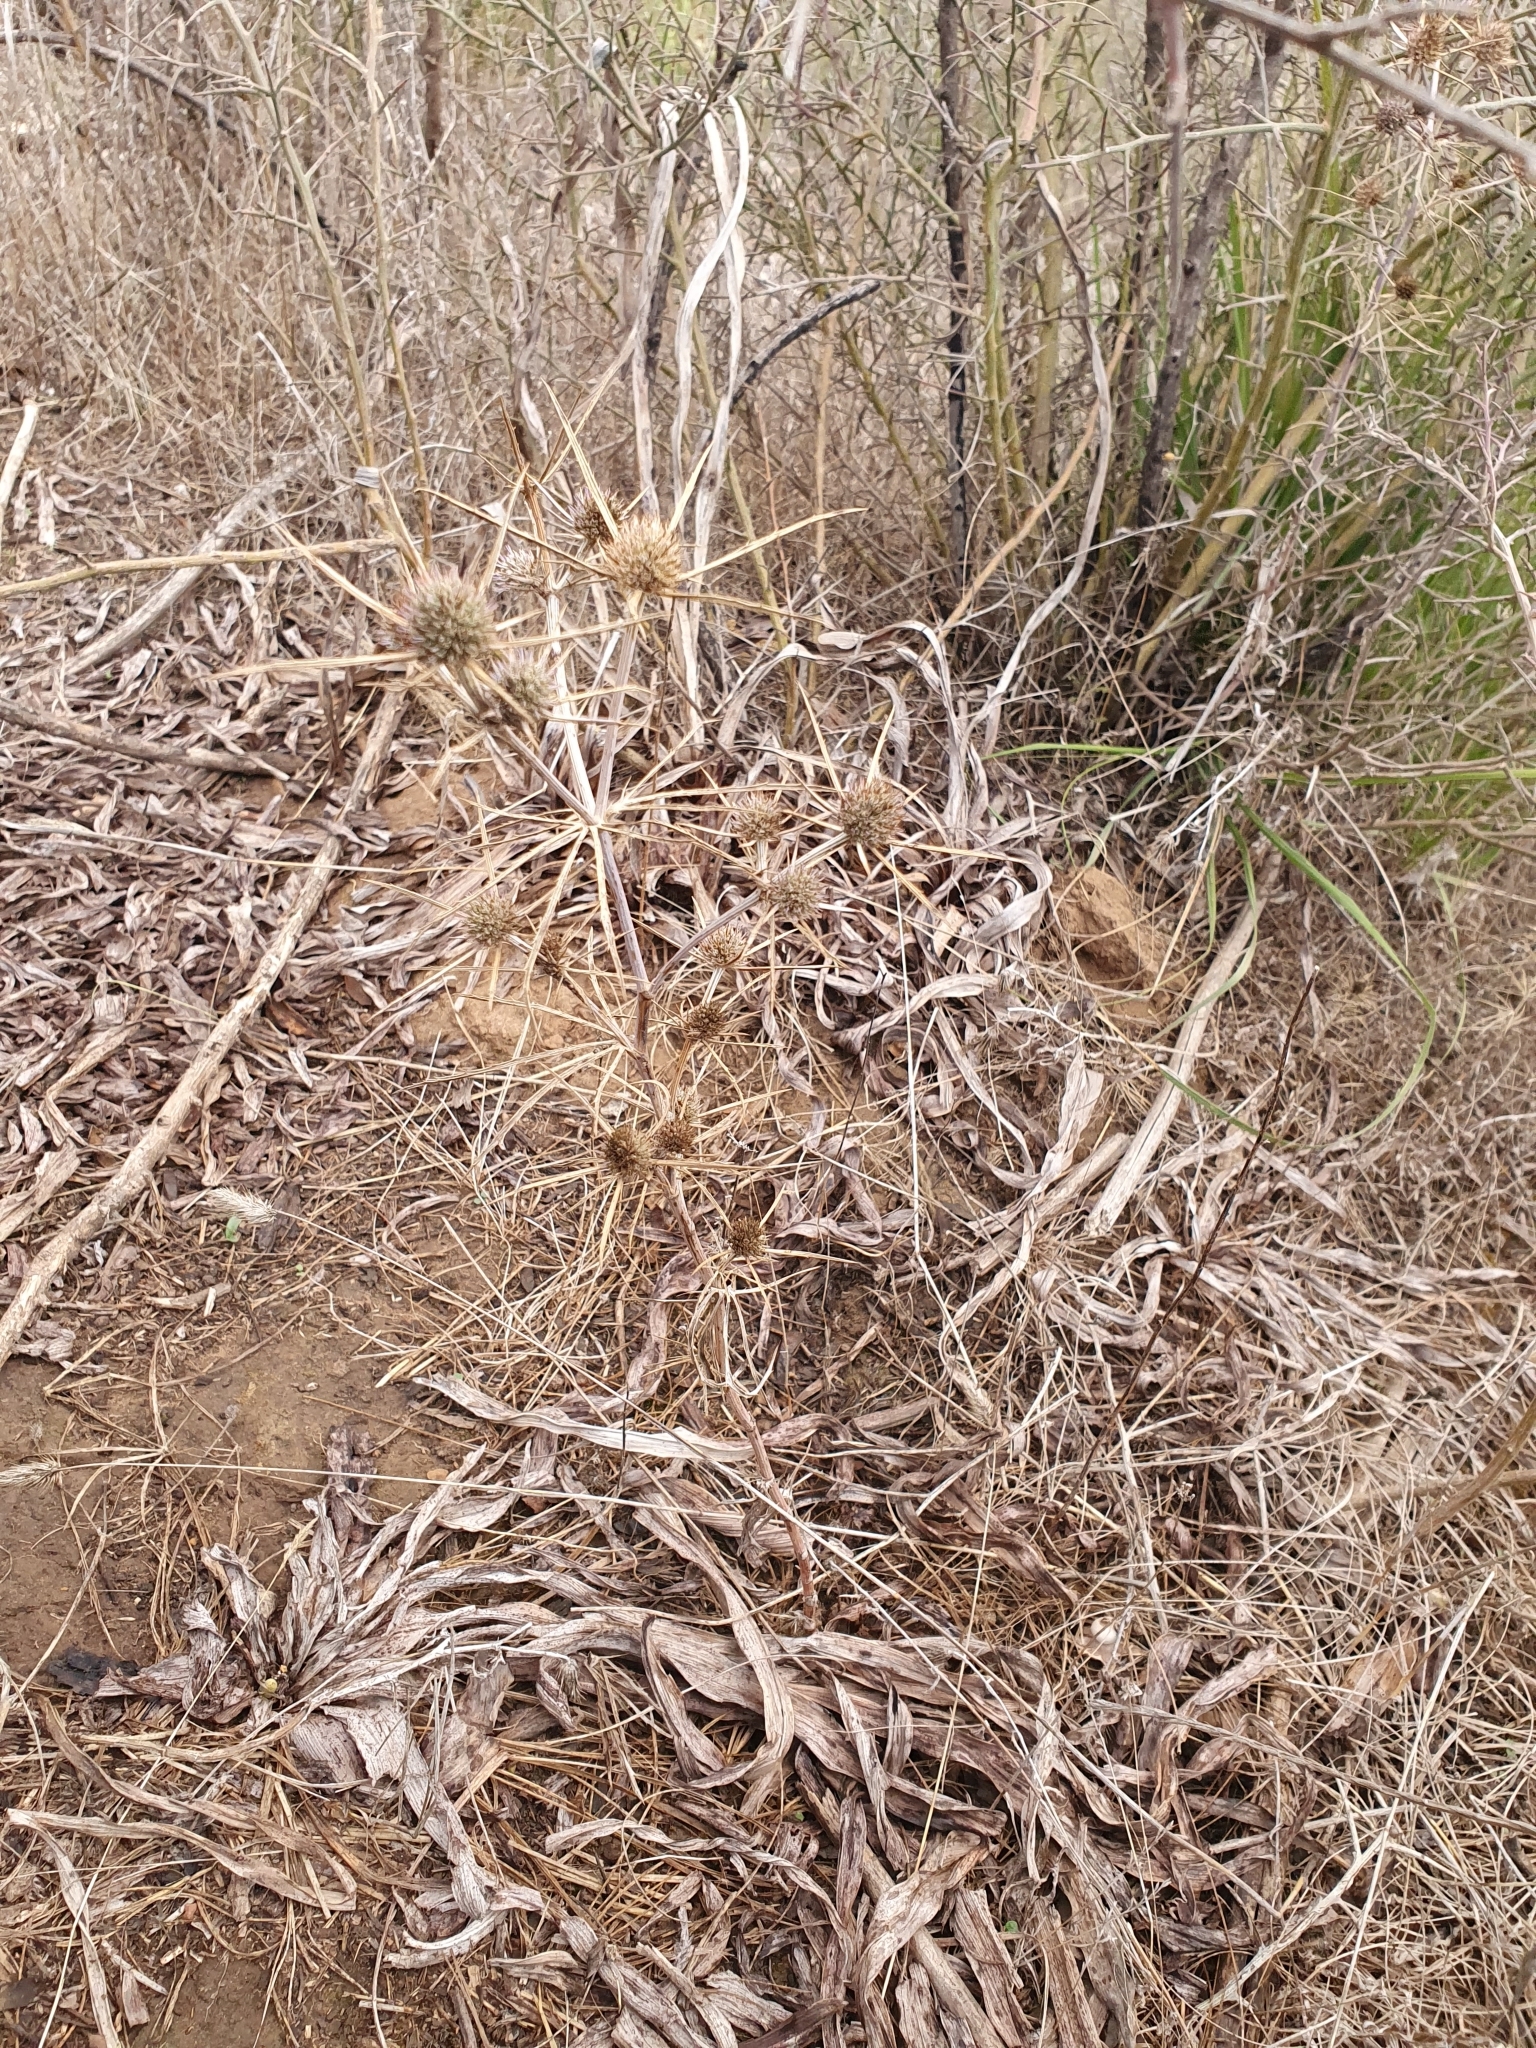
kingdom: Plantae
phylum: Tracheophyta
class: Magnoliopsida
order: Apiales
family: Apiaceae
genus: Eryngium
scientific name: Eryngium tricuspidatum
